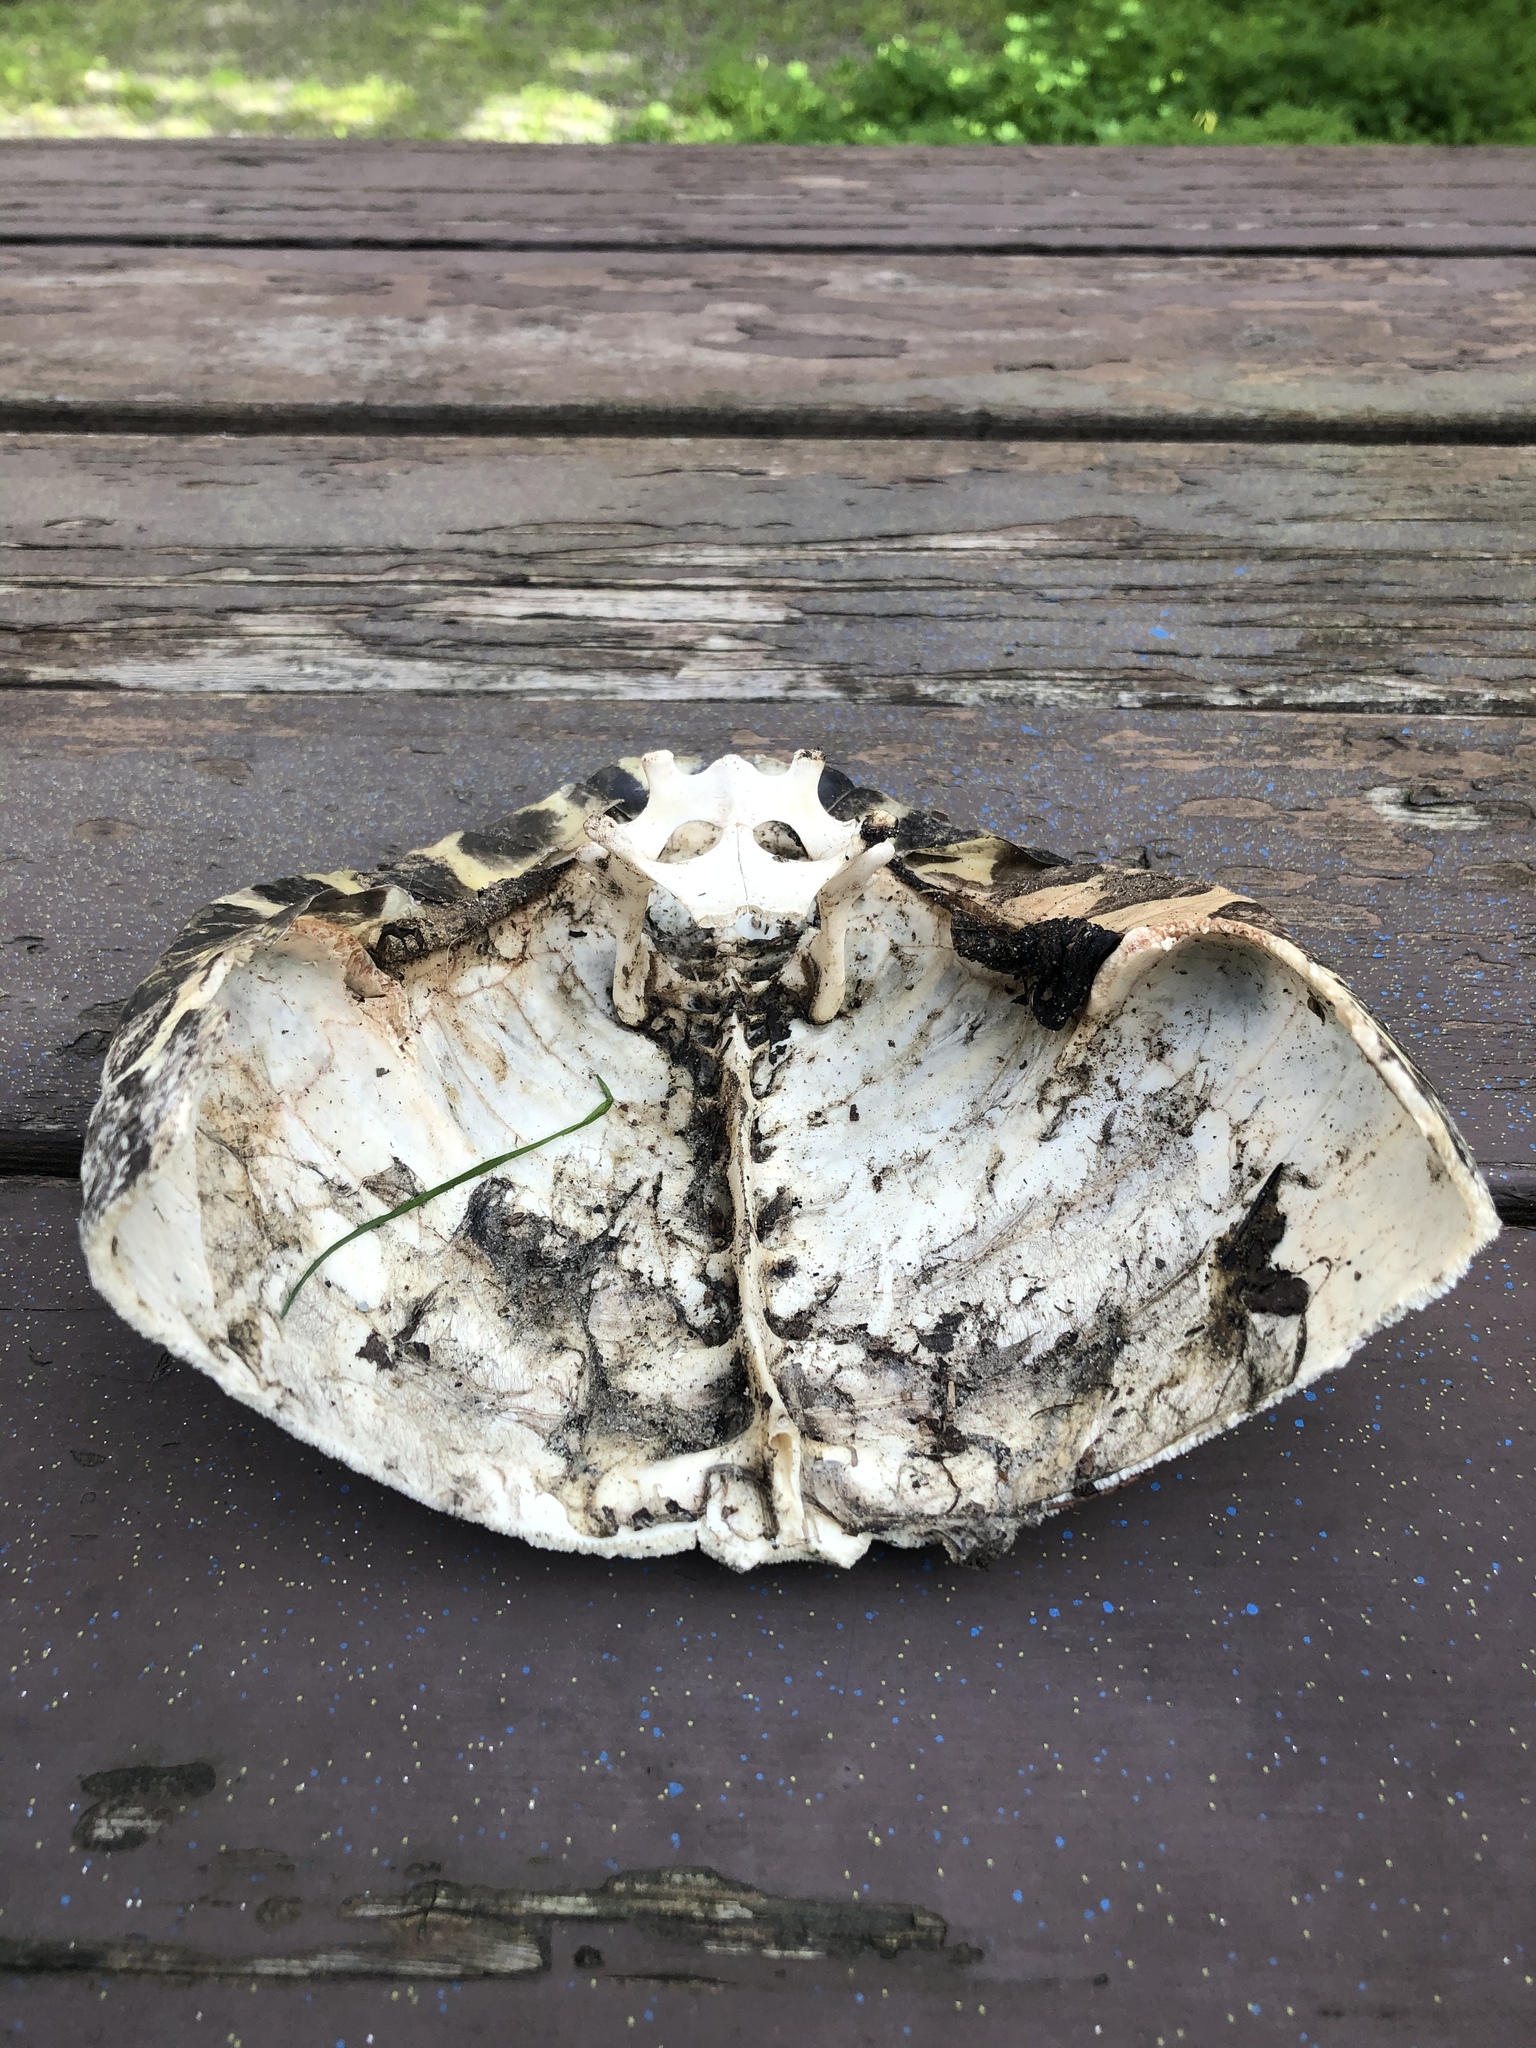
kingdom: Animalia
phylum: Chordata
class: Testudines
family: Emydidae
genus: Trachemys
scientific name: Trachemys scripta
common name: Slider
